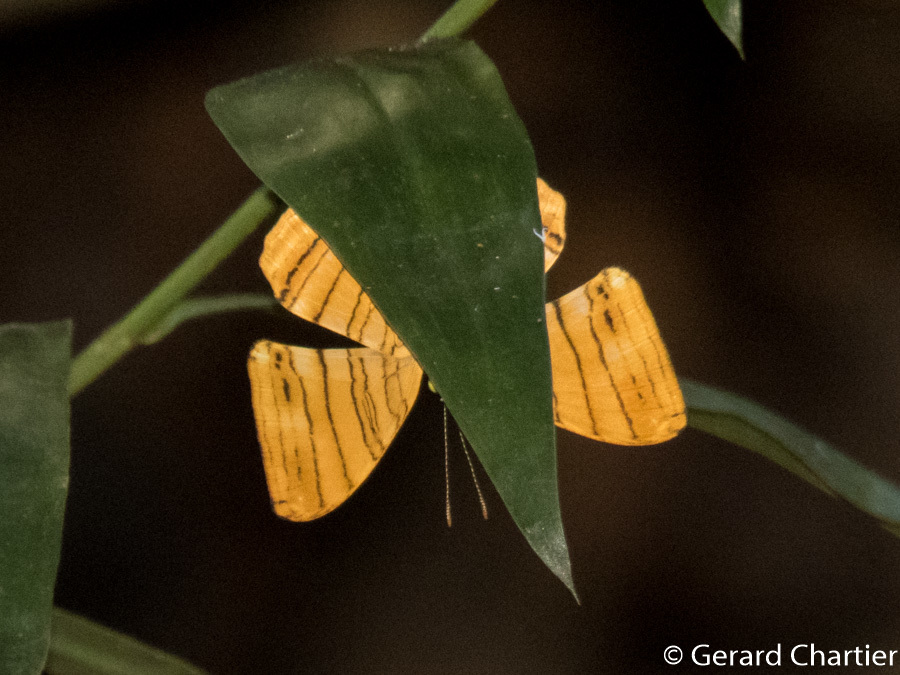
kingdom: Animalia
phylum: Arthropoda
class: Insecta
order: Lepidoptera
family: Nymphalidae
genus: Chersonesia
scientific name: Chersonesia risa
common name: Common maplet
